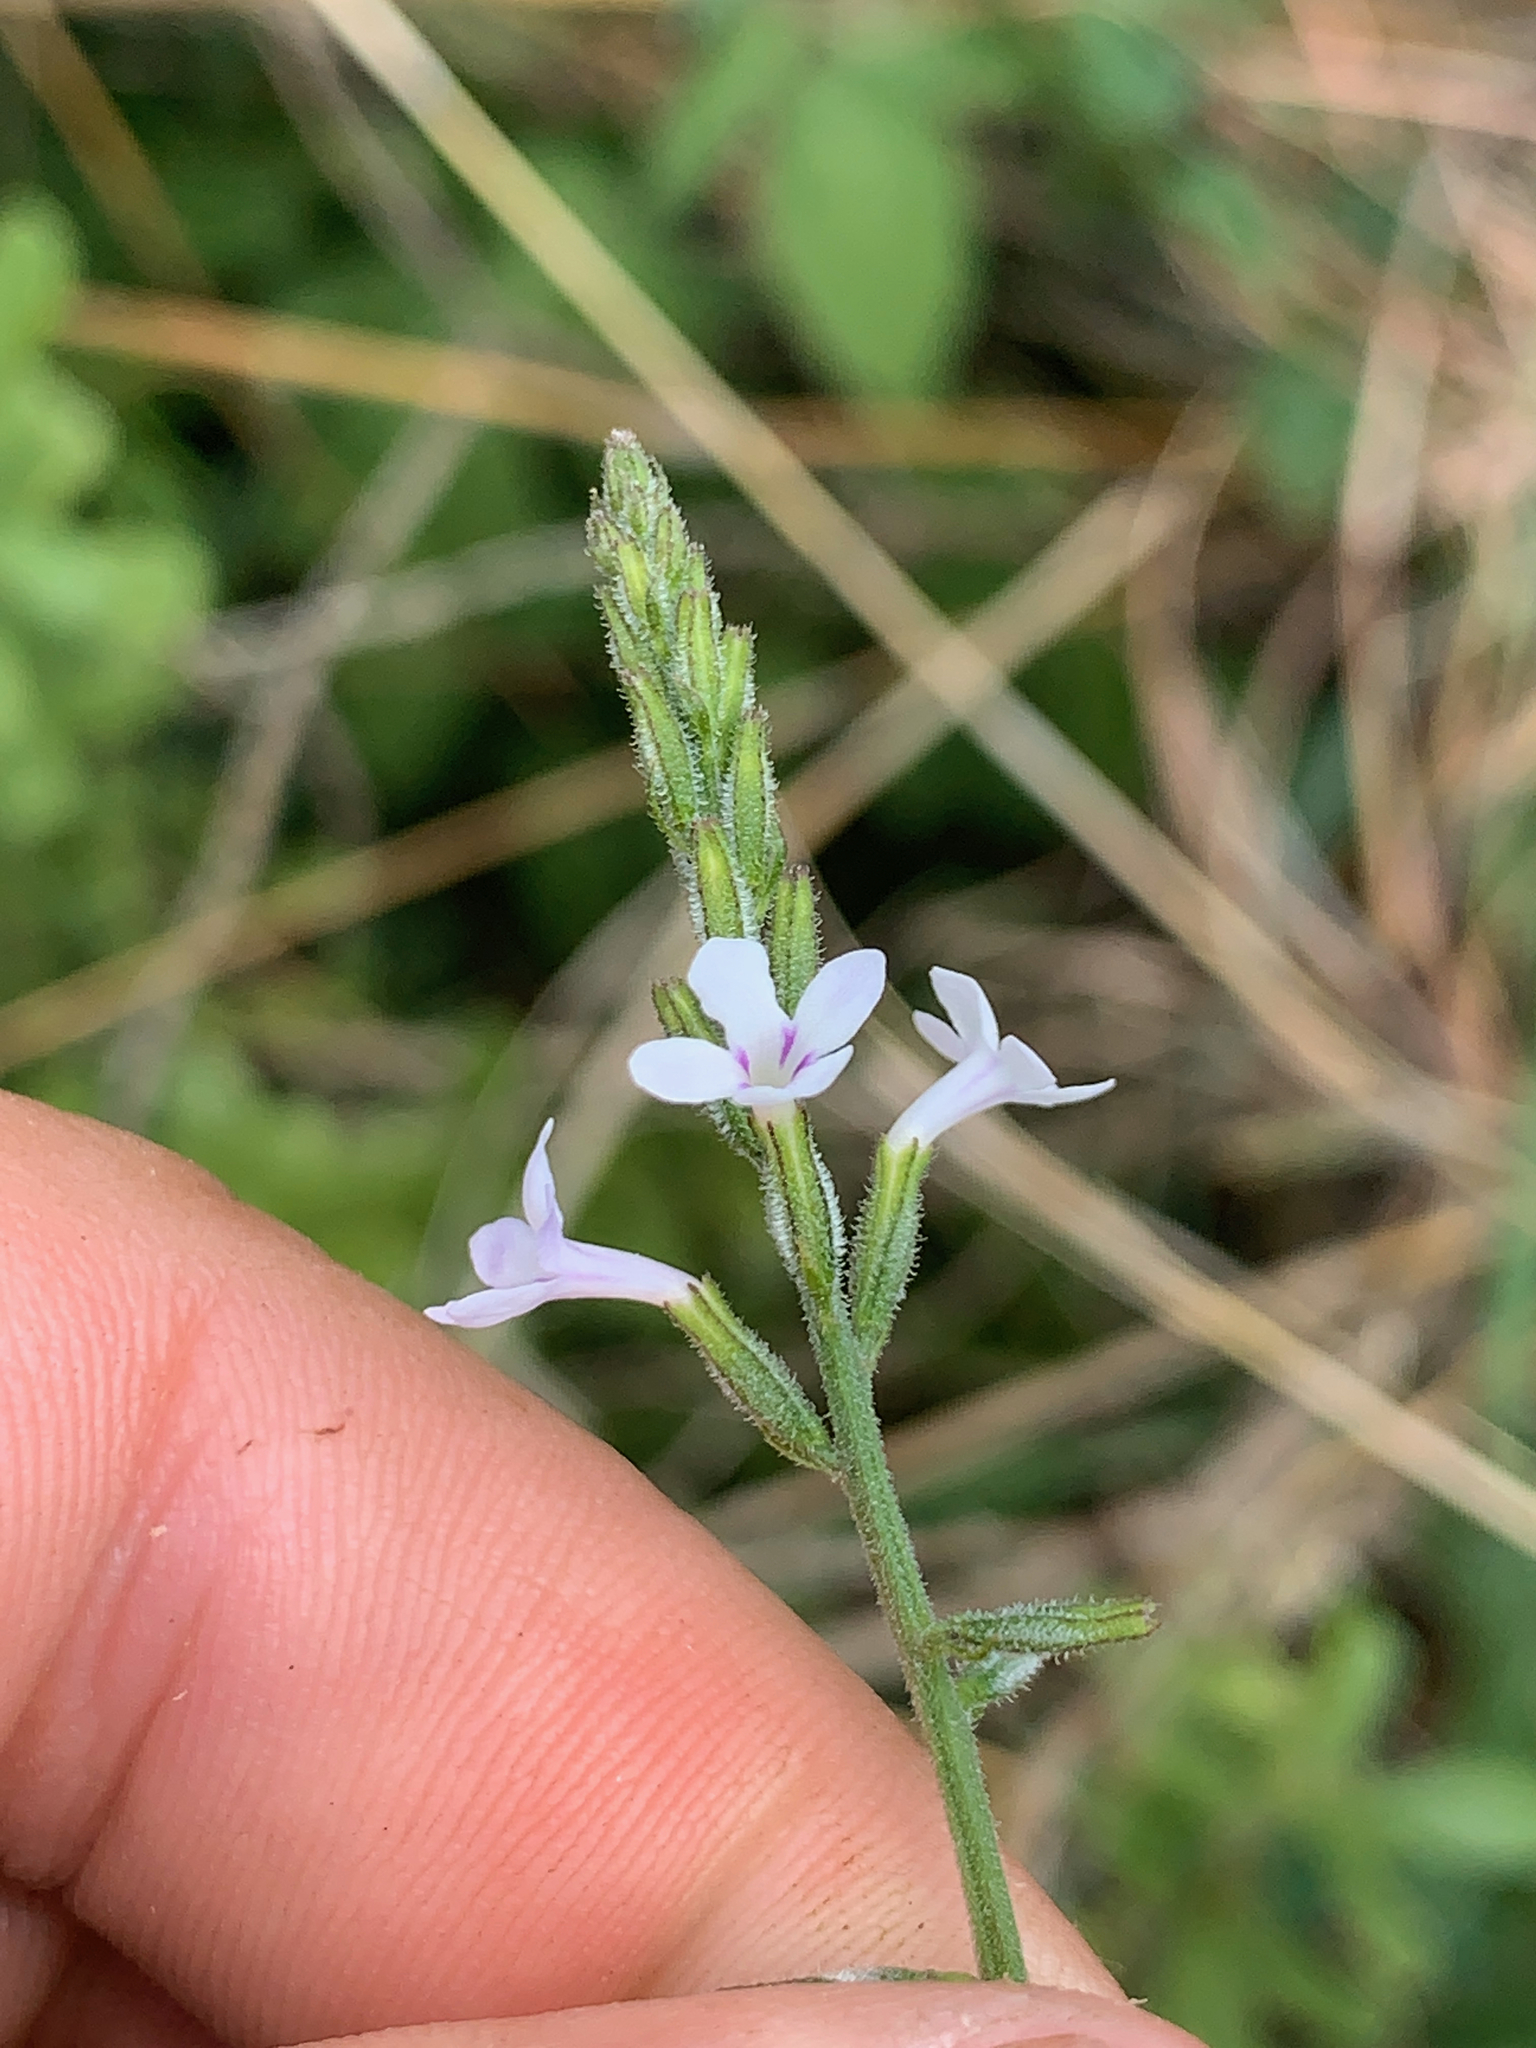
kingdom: Plantae
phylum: Tracheophyta
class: Magnoliopsida
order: Lamiales
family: Verbenaceae
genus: Priva
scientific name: Priva cordifolia
